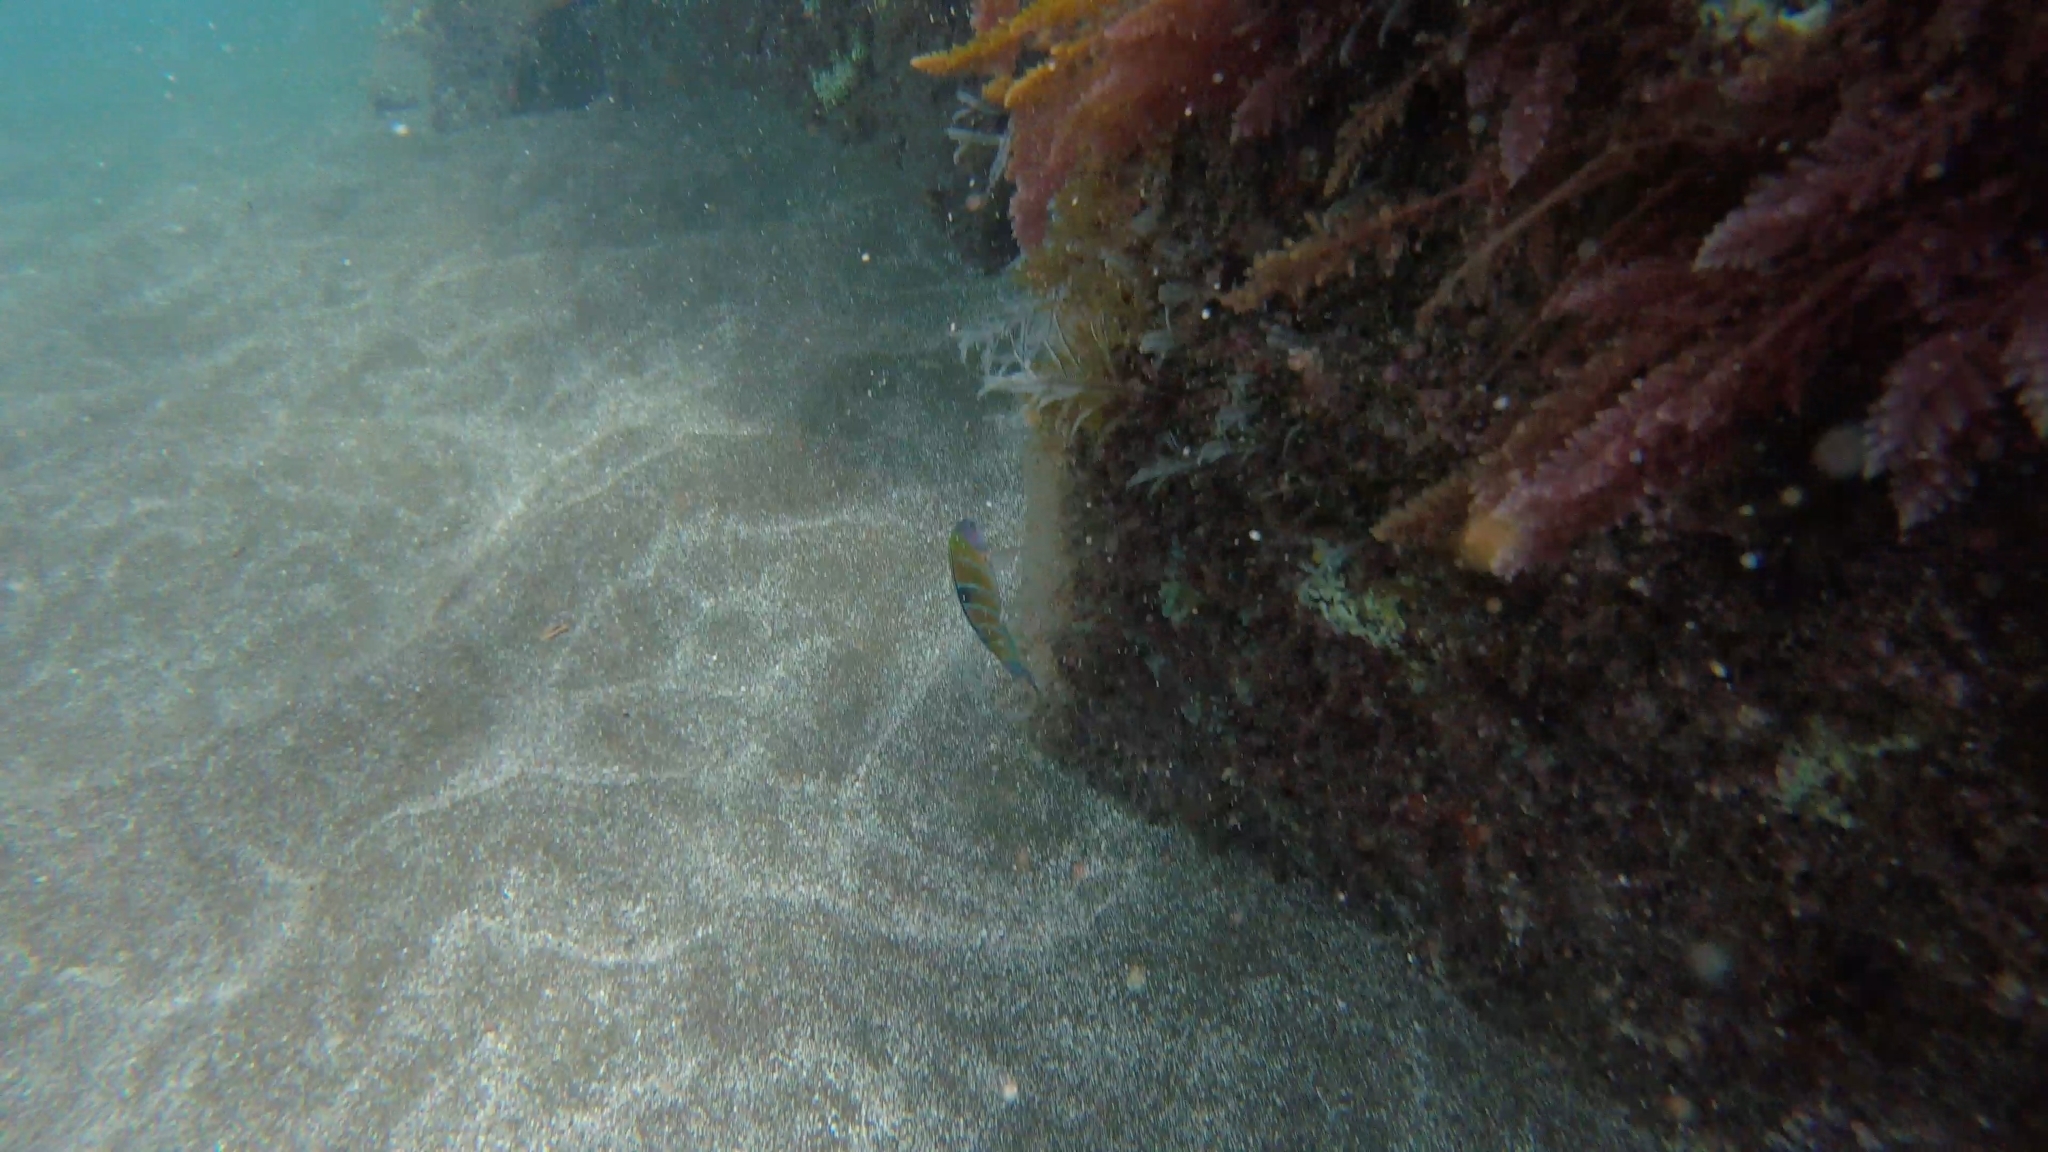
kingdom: Animalia
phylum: Chordata
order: Perciformes
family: Labridae
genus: Thalassoma
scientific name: Thalassoma pavo
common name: Ornate wrasse
